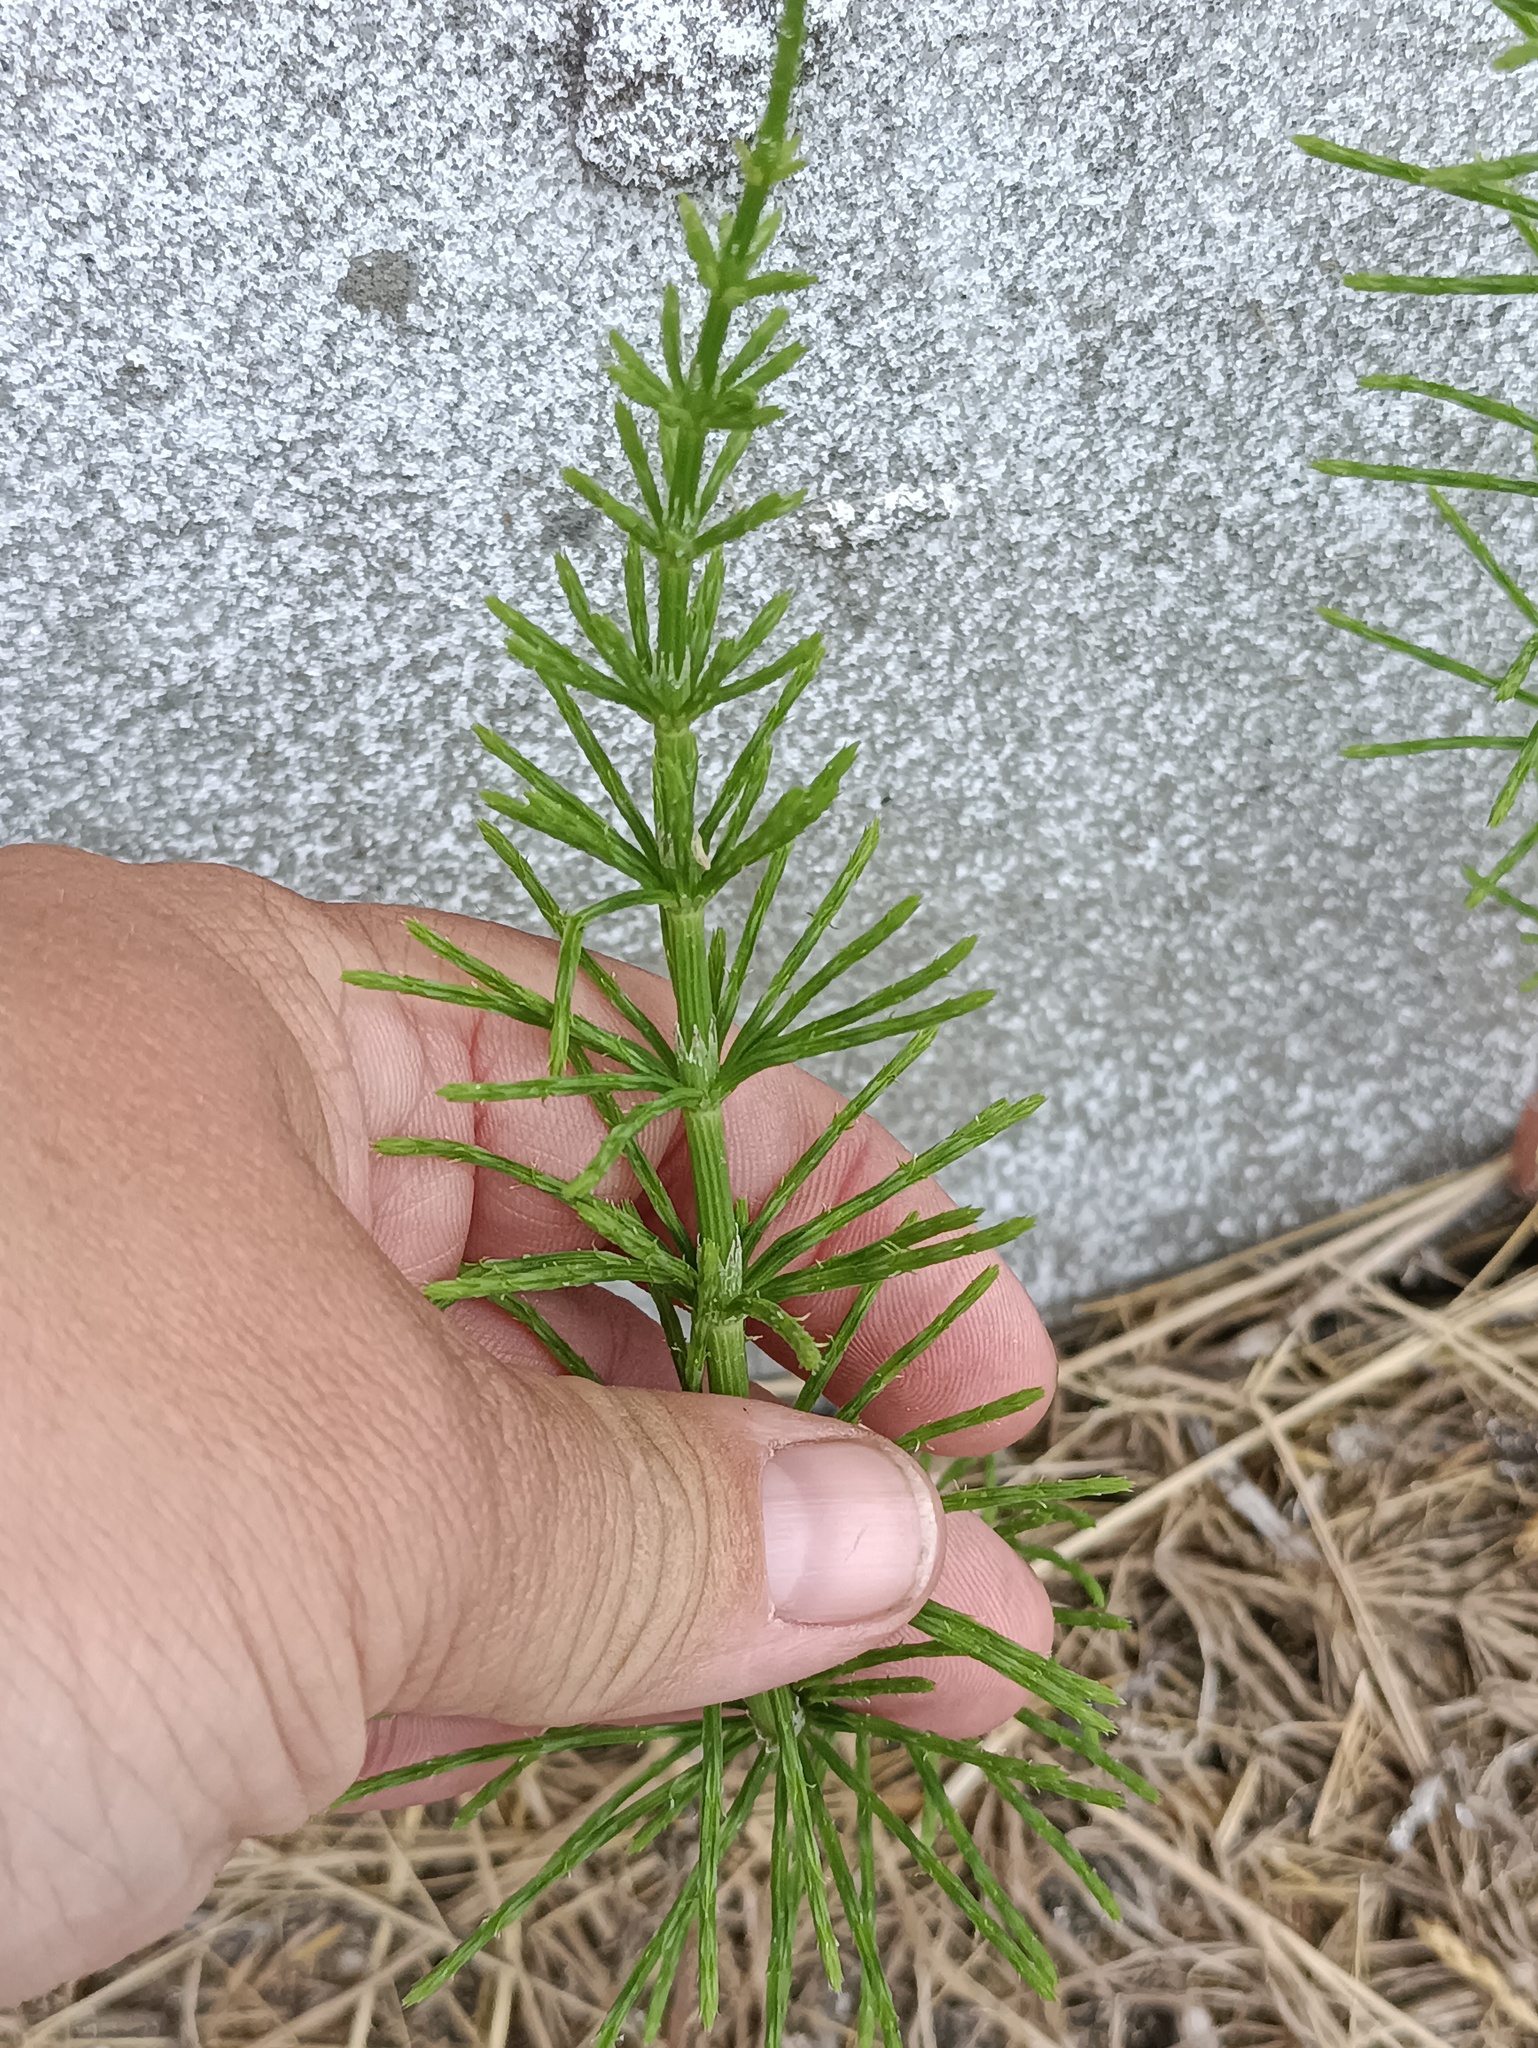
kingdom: Plantae
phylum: Tracheophyta
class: Polypodiopsida
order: Equisetales
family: Equisetaceae
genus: Equisetum
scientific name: Equisetum arvense
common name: Field horsetail
